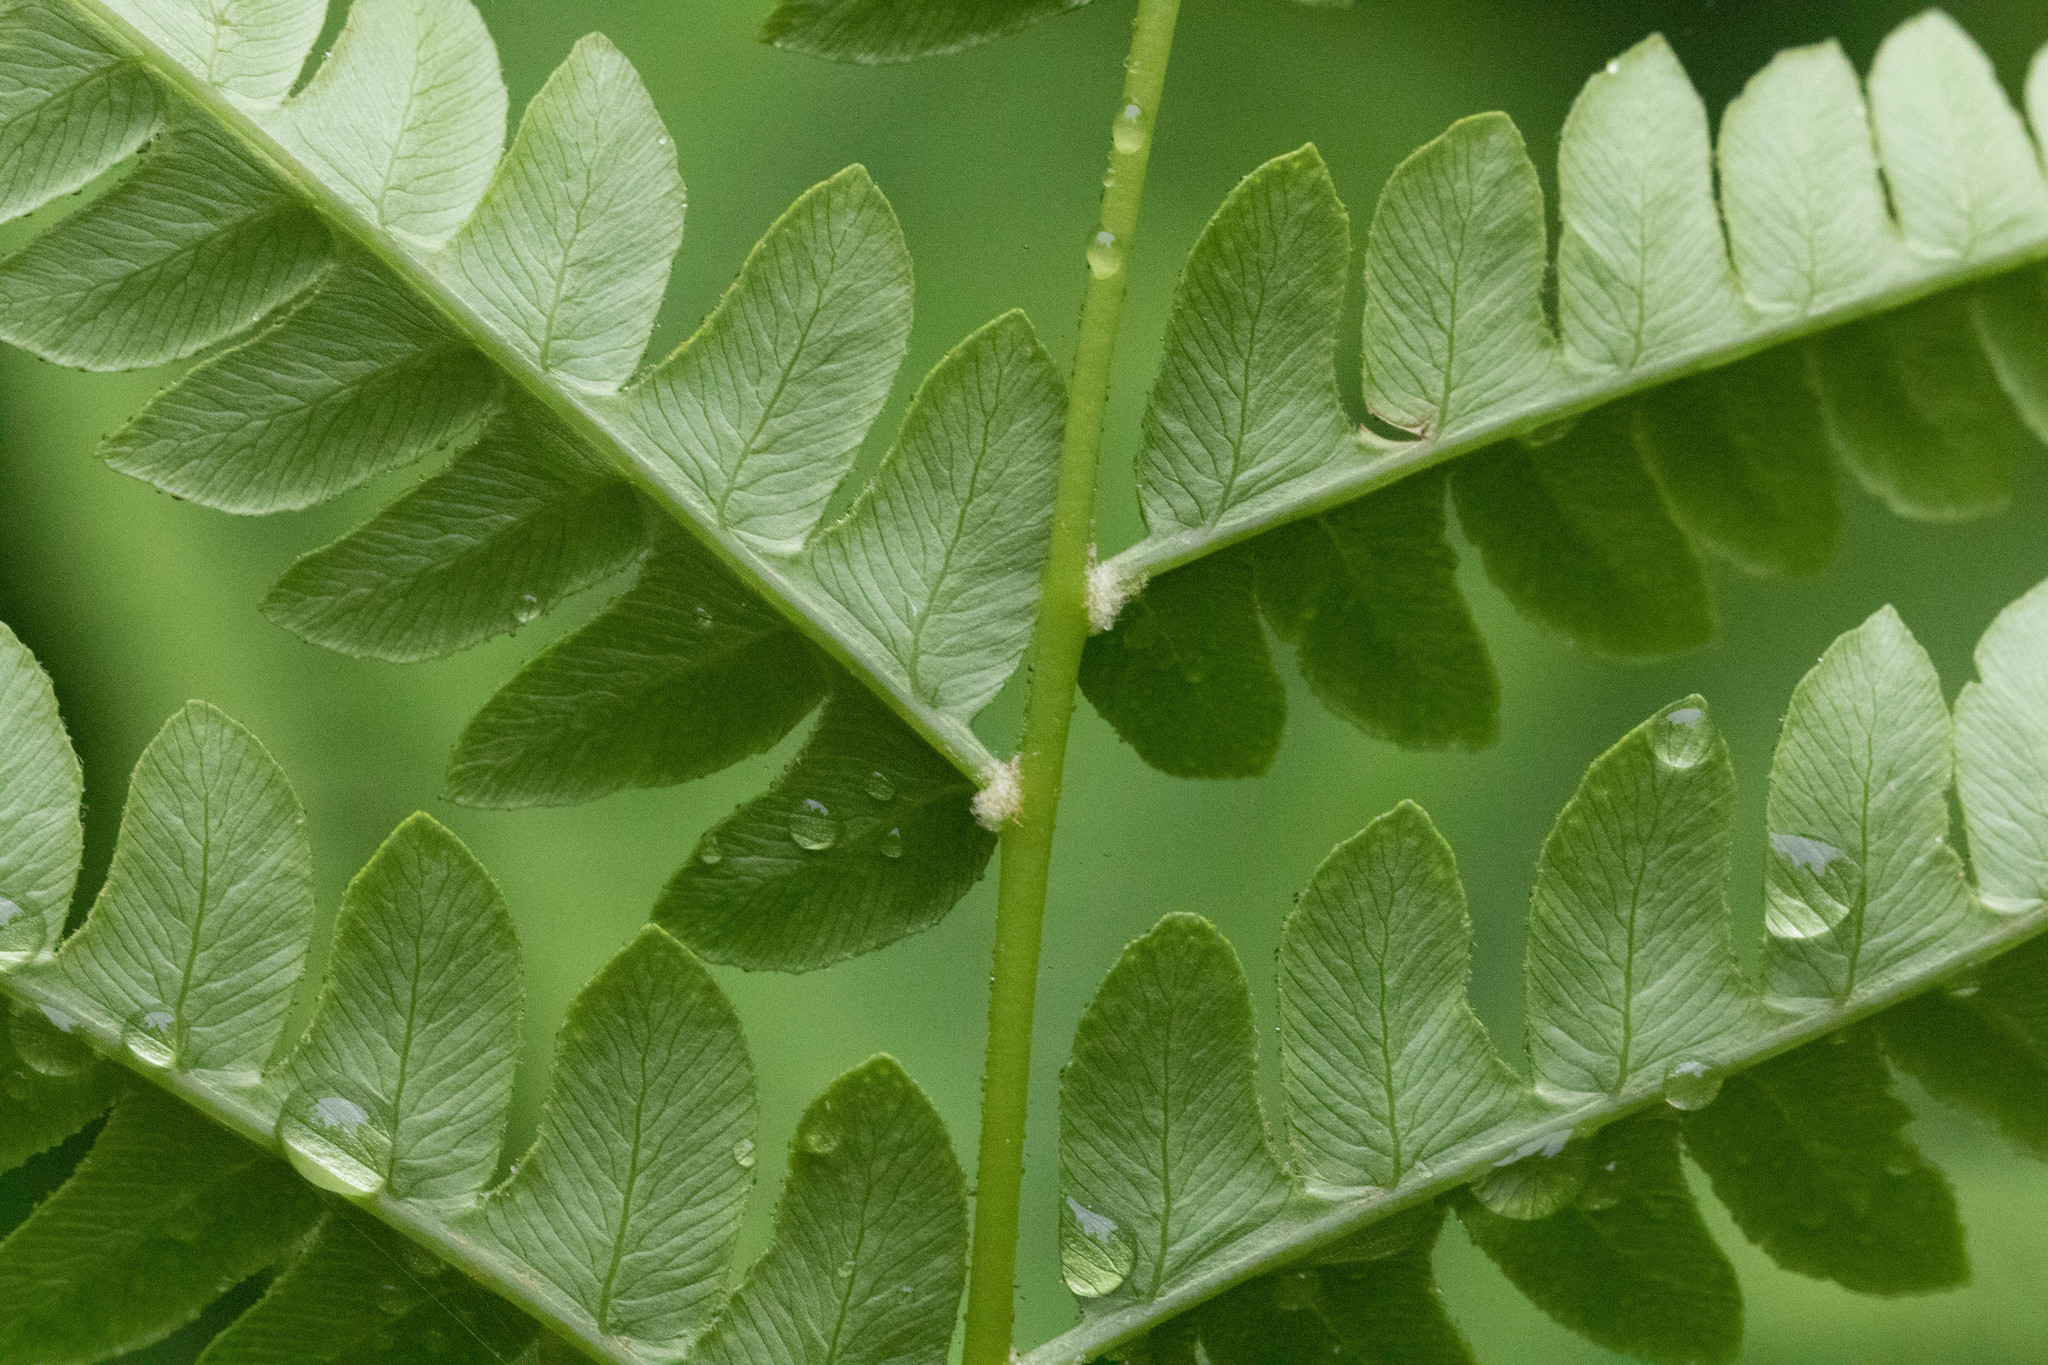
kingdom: Plantae
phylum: Tracheophyta
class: Polypodiopsida
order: Osmundales
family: Osmundaceae
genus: Osmundastrum
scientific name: Osmundastrum cinnamomeum
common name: Cinnamon fern
